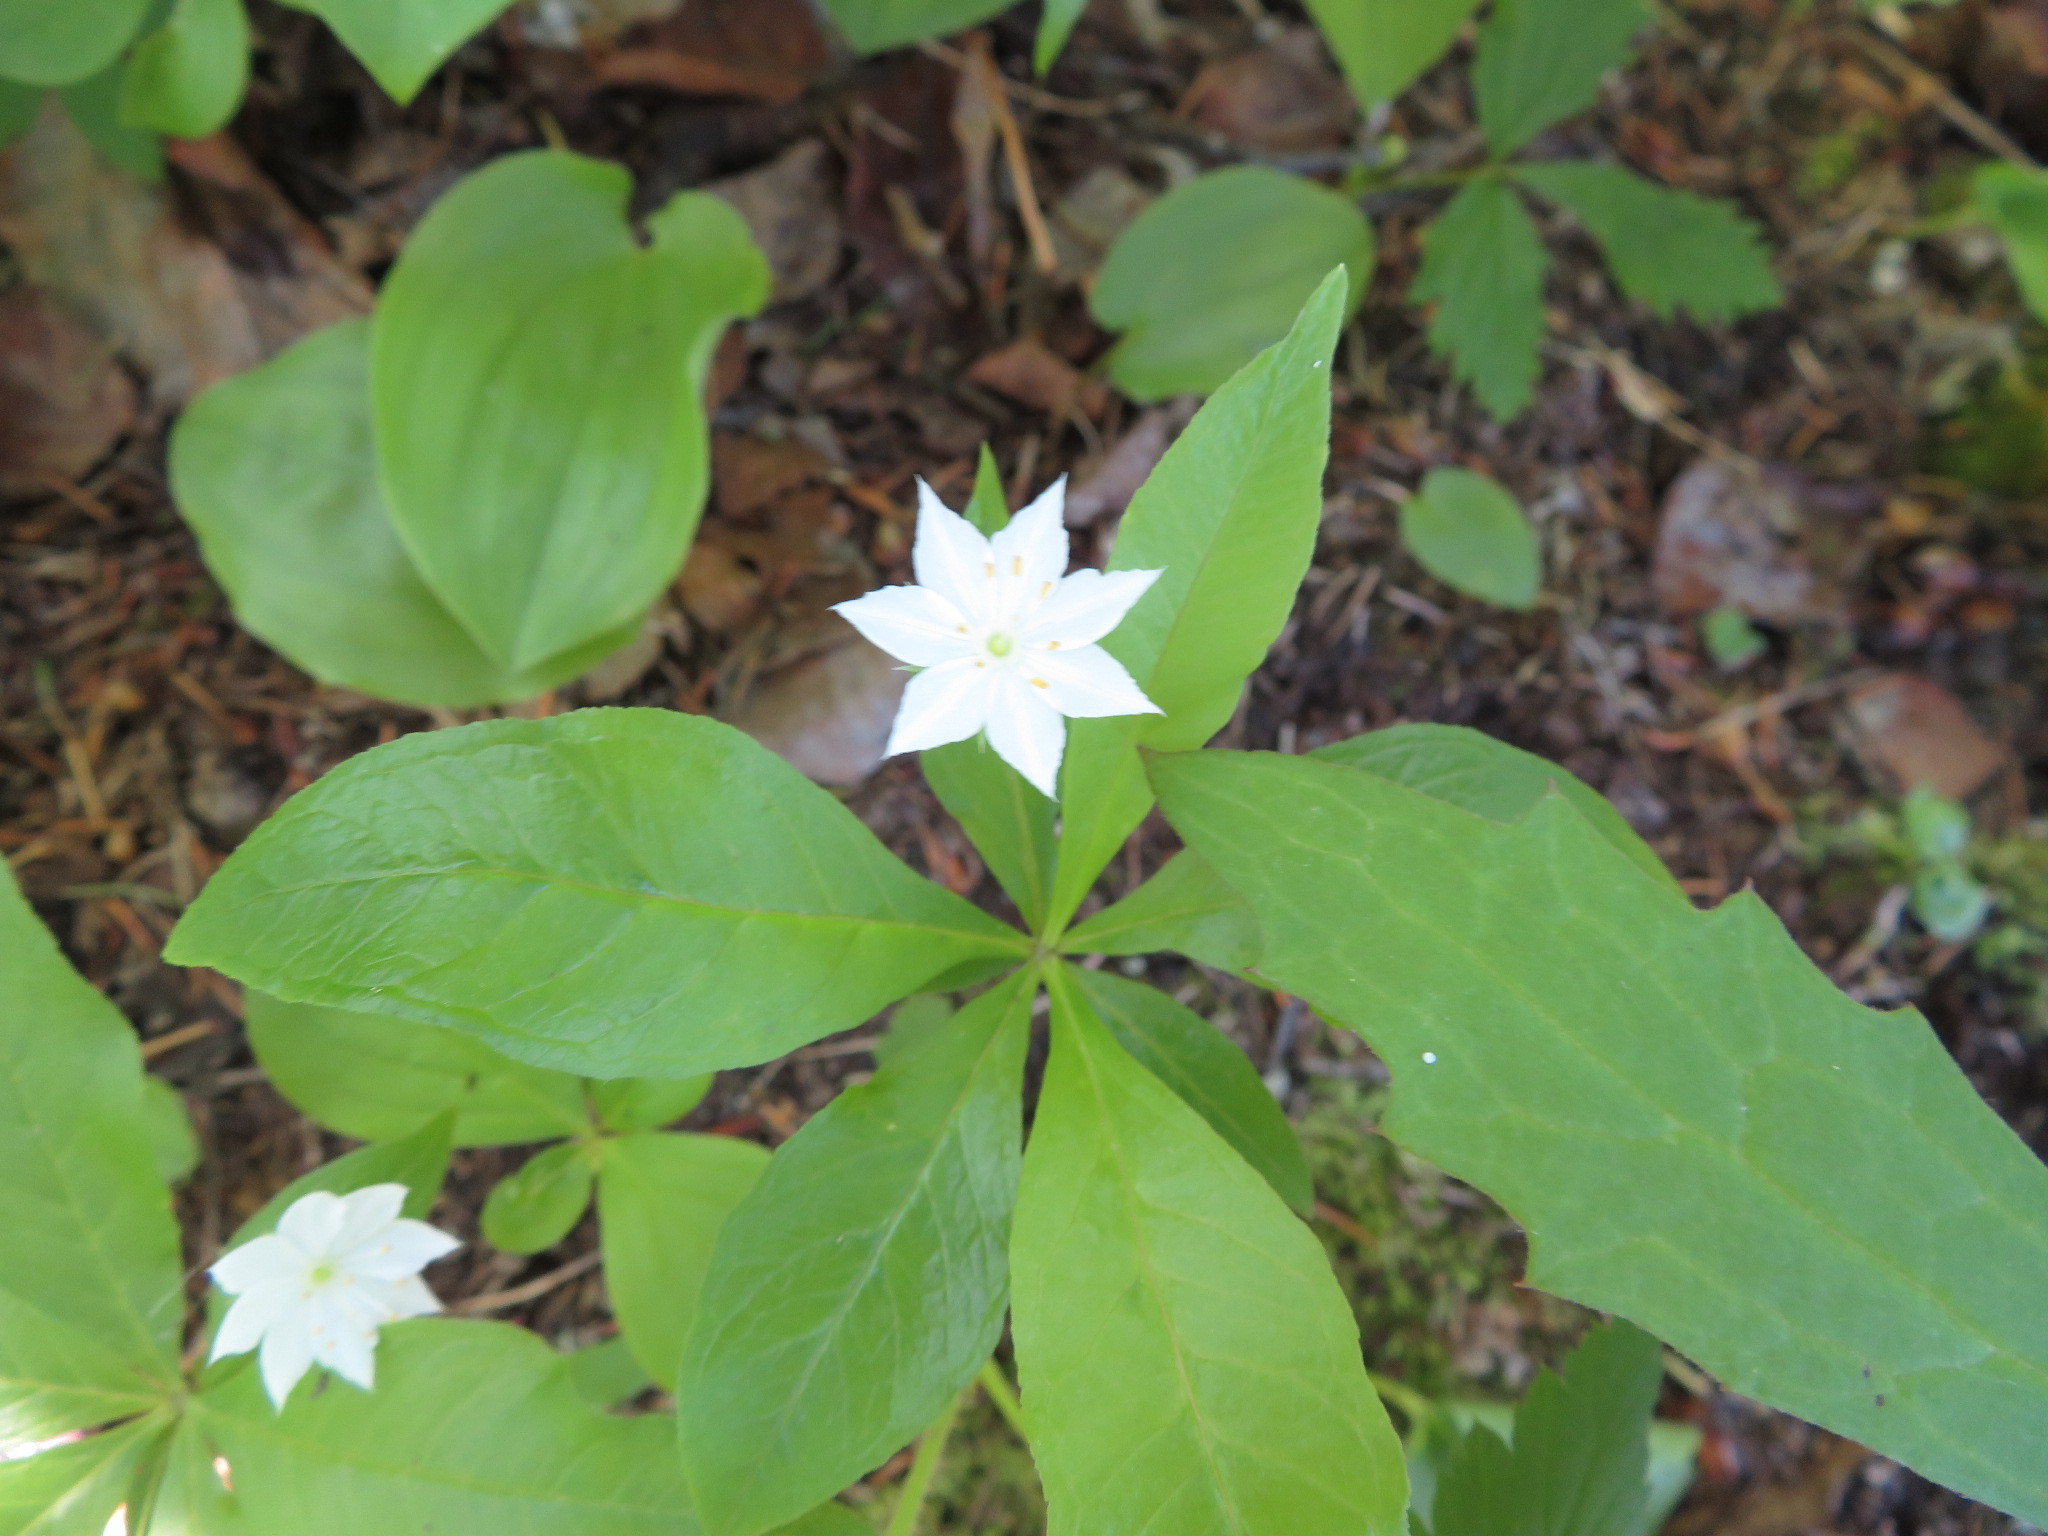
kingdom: Plantae
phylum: Tracheophyta
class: Magnoliopsida
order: Ericales
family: Primulaceae
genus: Lysimachia
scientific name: Lysimachia borealis
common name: American starflower
